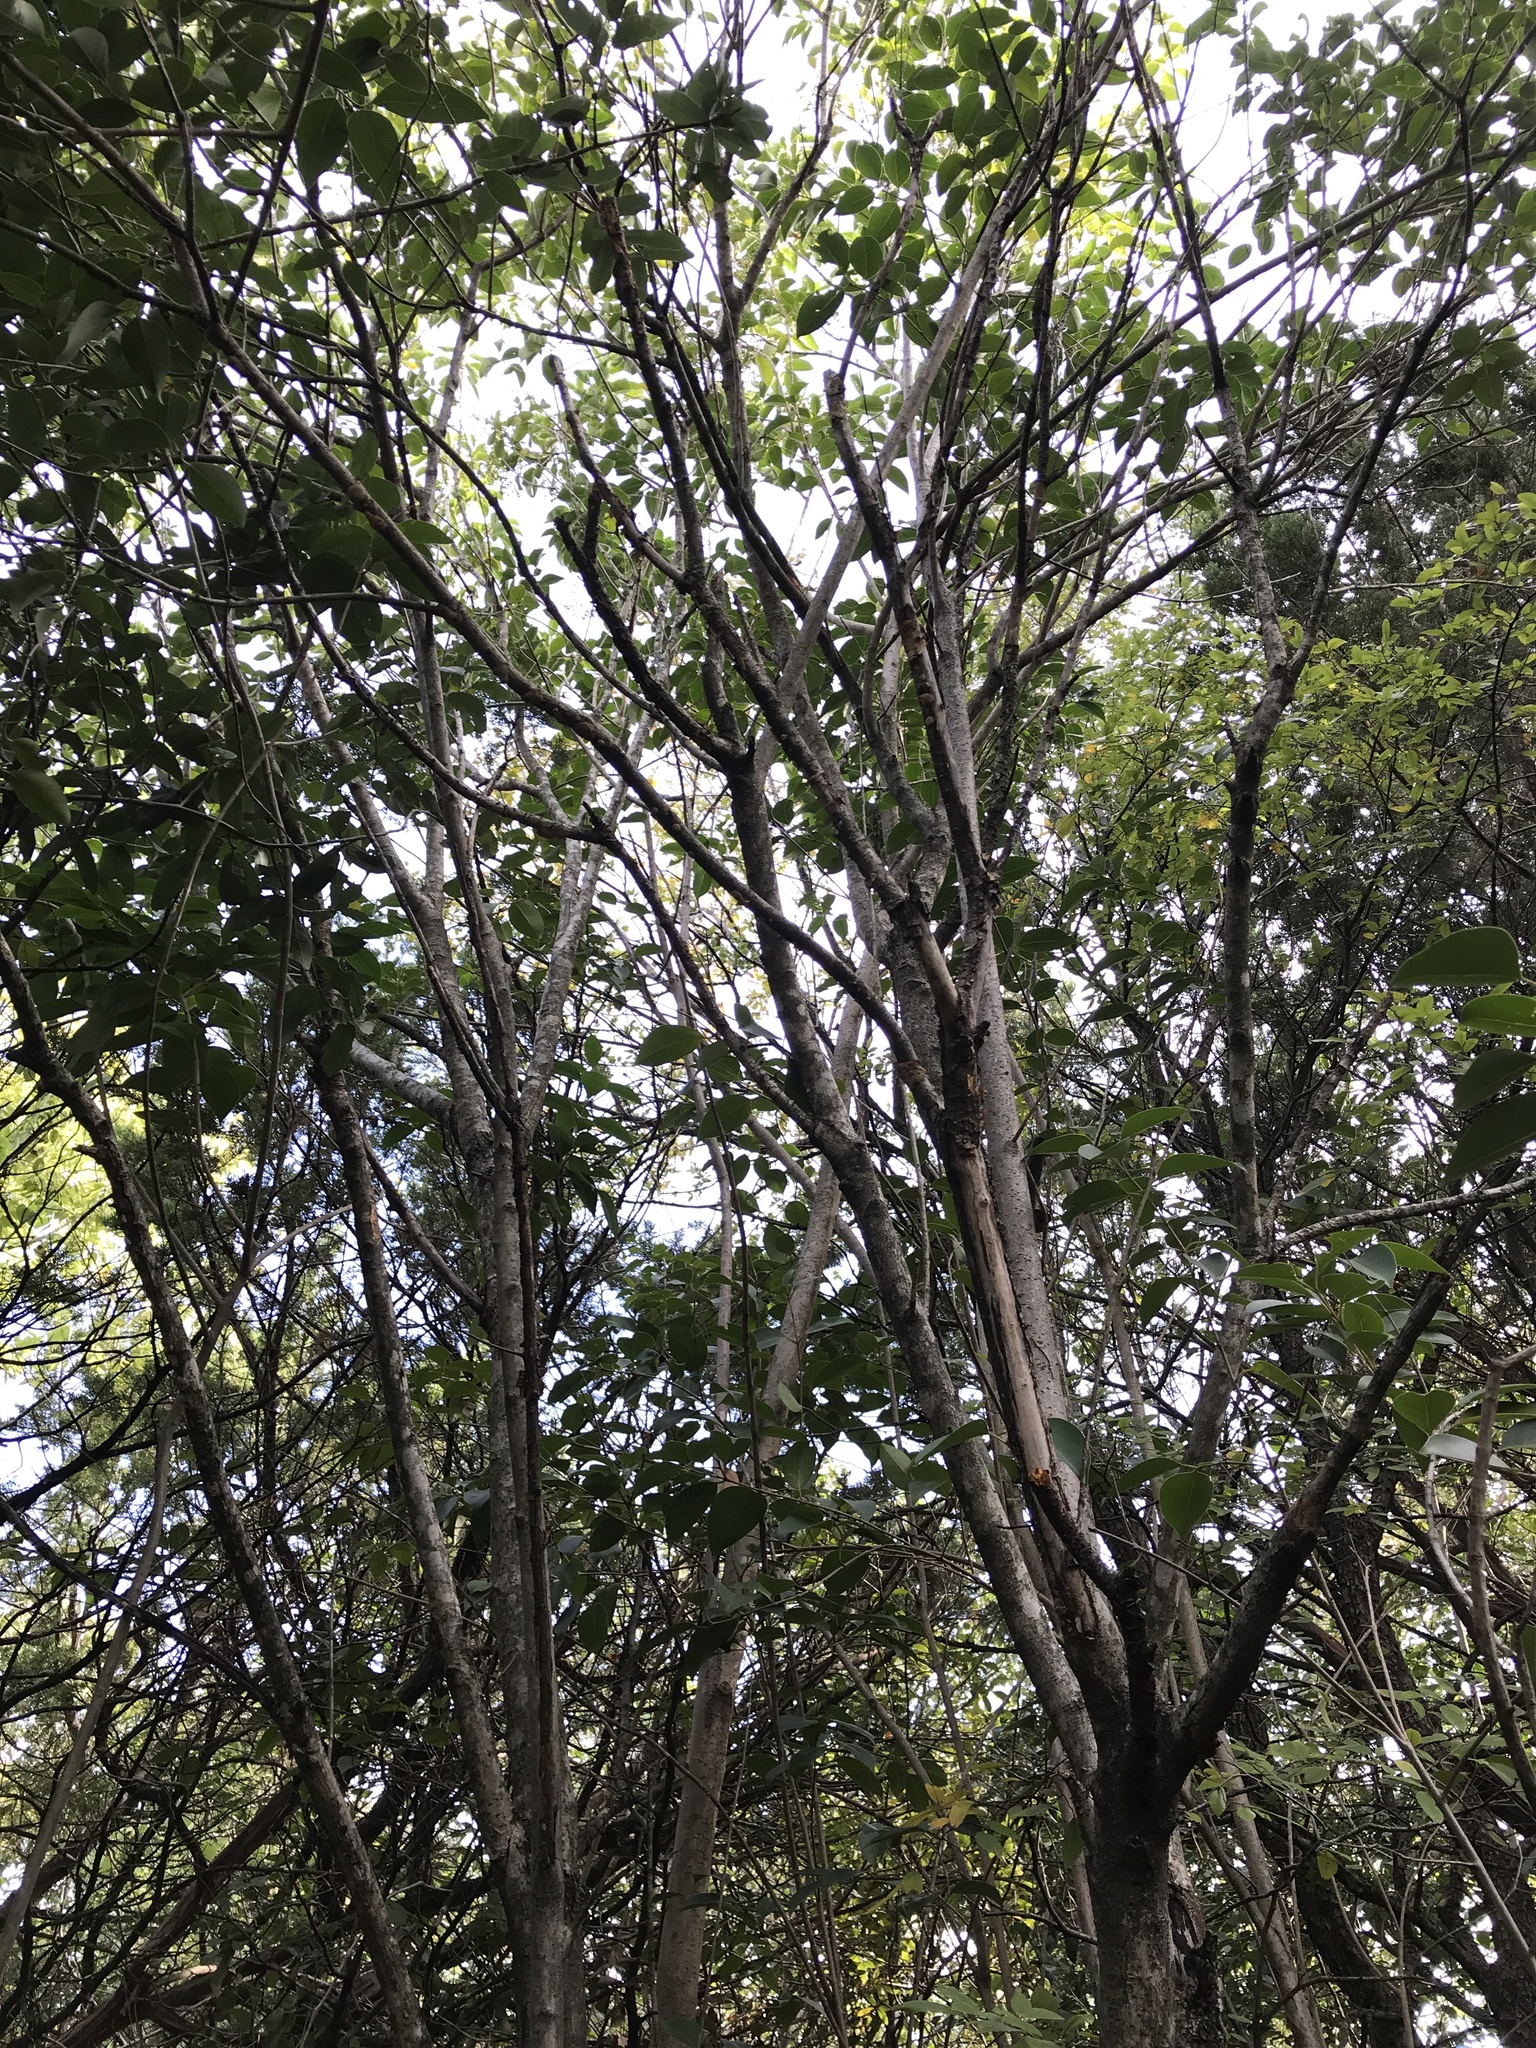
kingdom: Plantae
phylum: Tracheophyta
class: Magnoliopsida
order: Lamiales
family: Oleaceae
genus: Ligustrum
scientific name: Ligustrum lucidum
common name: Glossy privet
